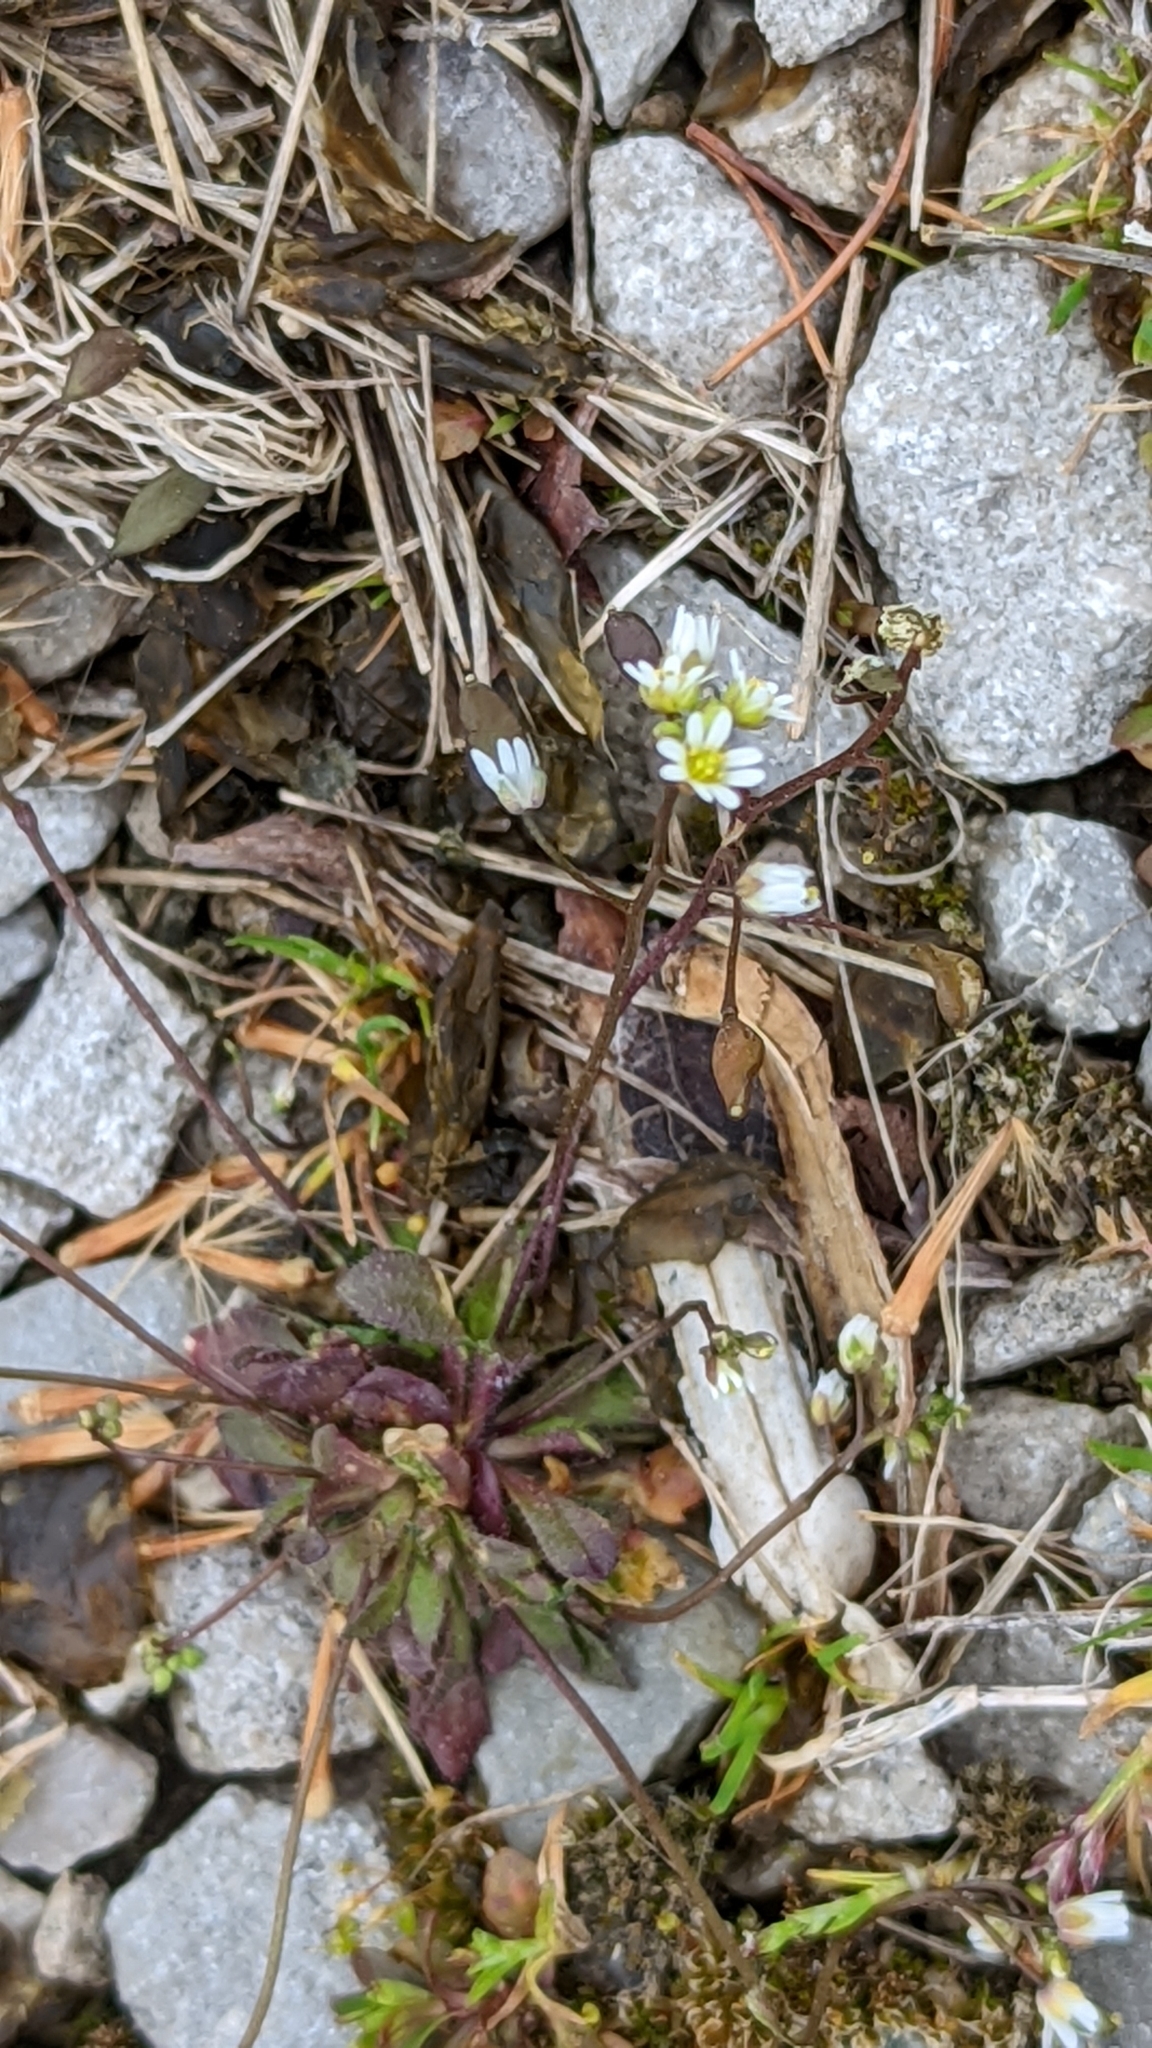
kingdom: Plantae
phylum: Tracheophyta
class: Magnoliopsida
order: Brassicales
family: Brassicaceae
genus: Draba
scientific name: Draba verna
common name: Spring draba
